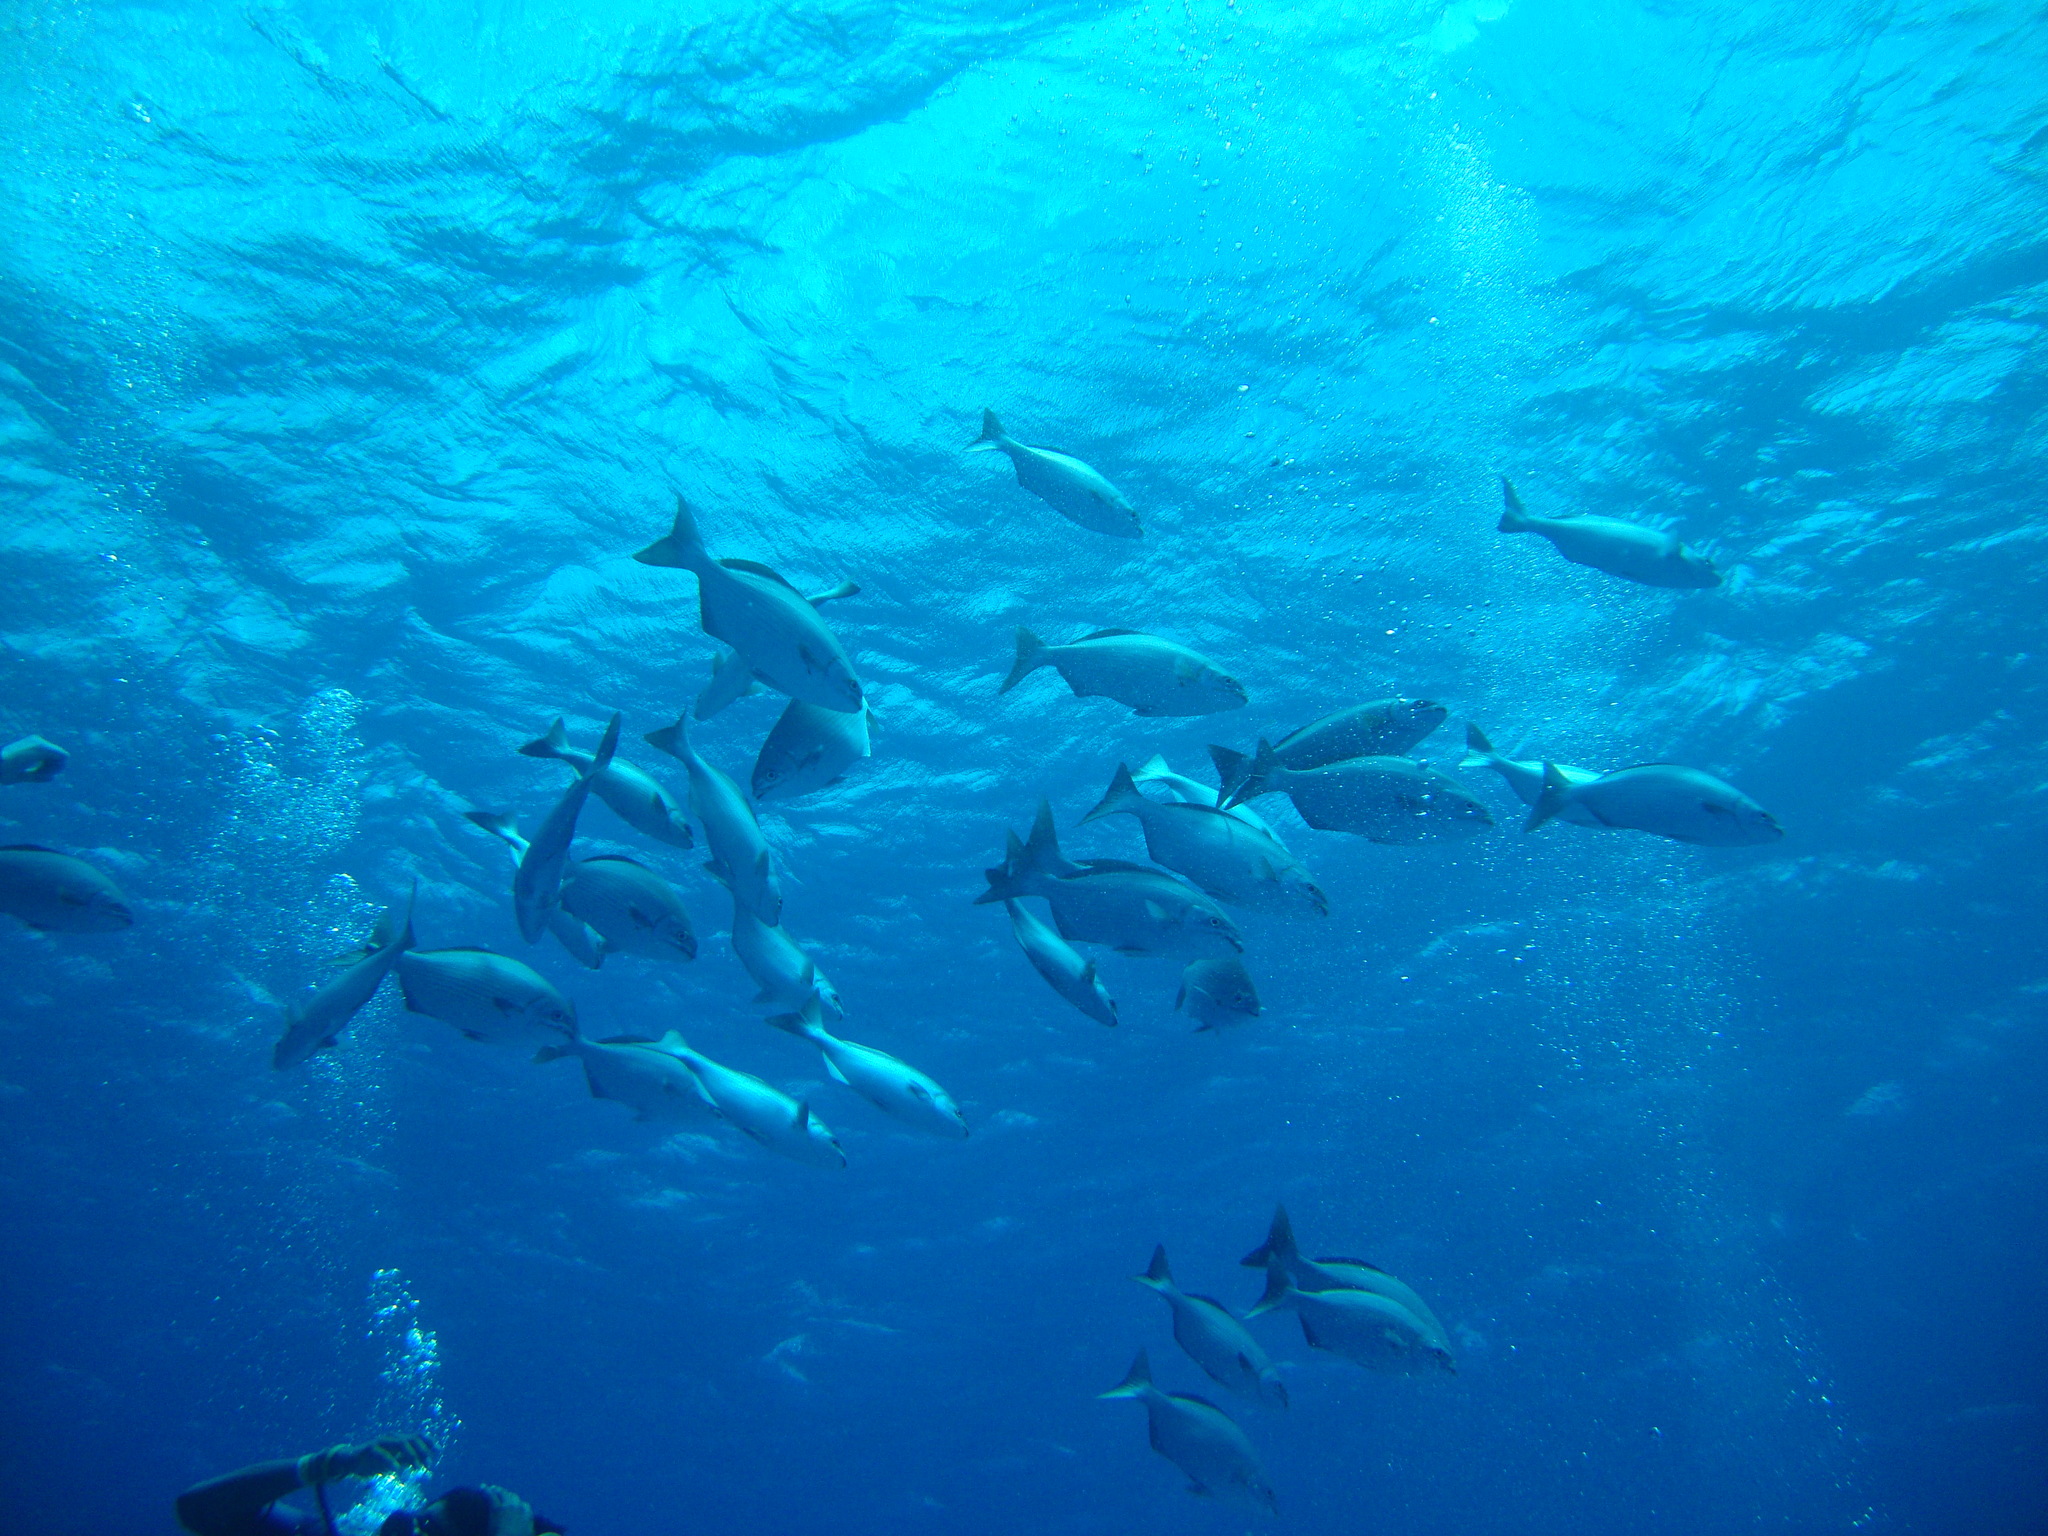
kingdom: Animalia
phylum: Chordata
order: Perciformes
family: Kyphosidae
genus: Kyphosus
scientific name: Kyphosus sectatrix
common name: Bermuda chub
